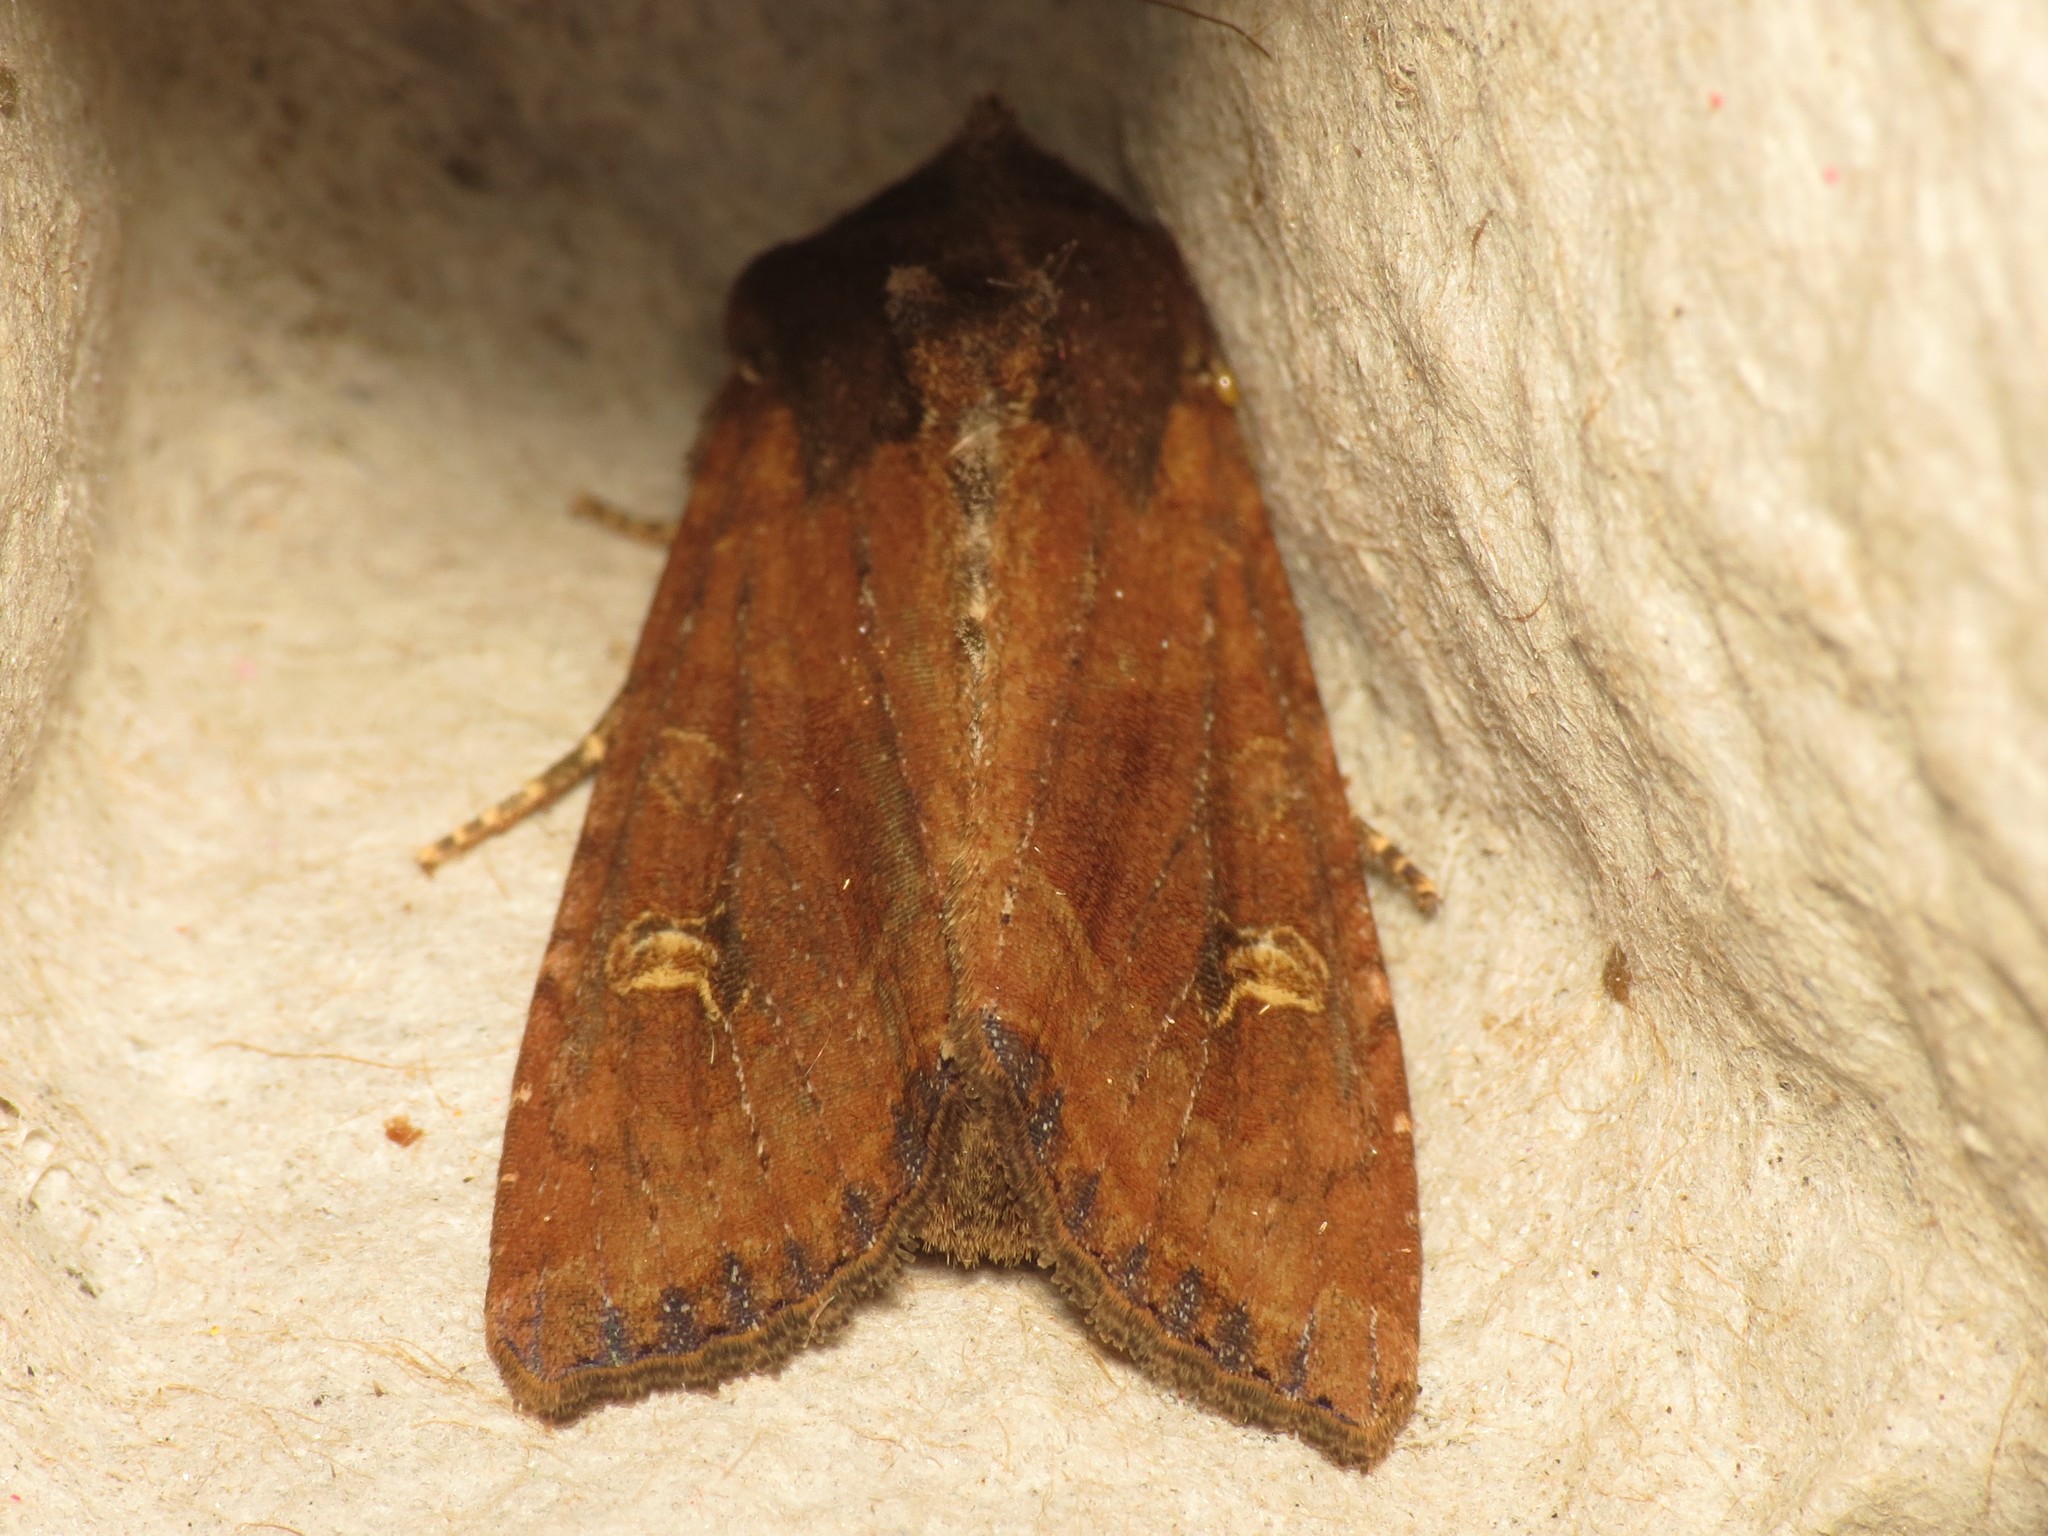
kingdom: Animalia
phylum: Arthropoda
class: Insecta
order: Lepidoptera
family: Noctuidae
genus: Helotropha
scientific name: Helotropha leucostigma
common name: The crescent
